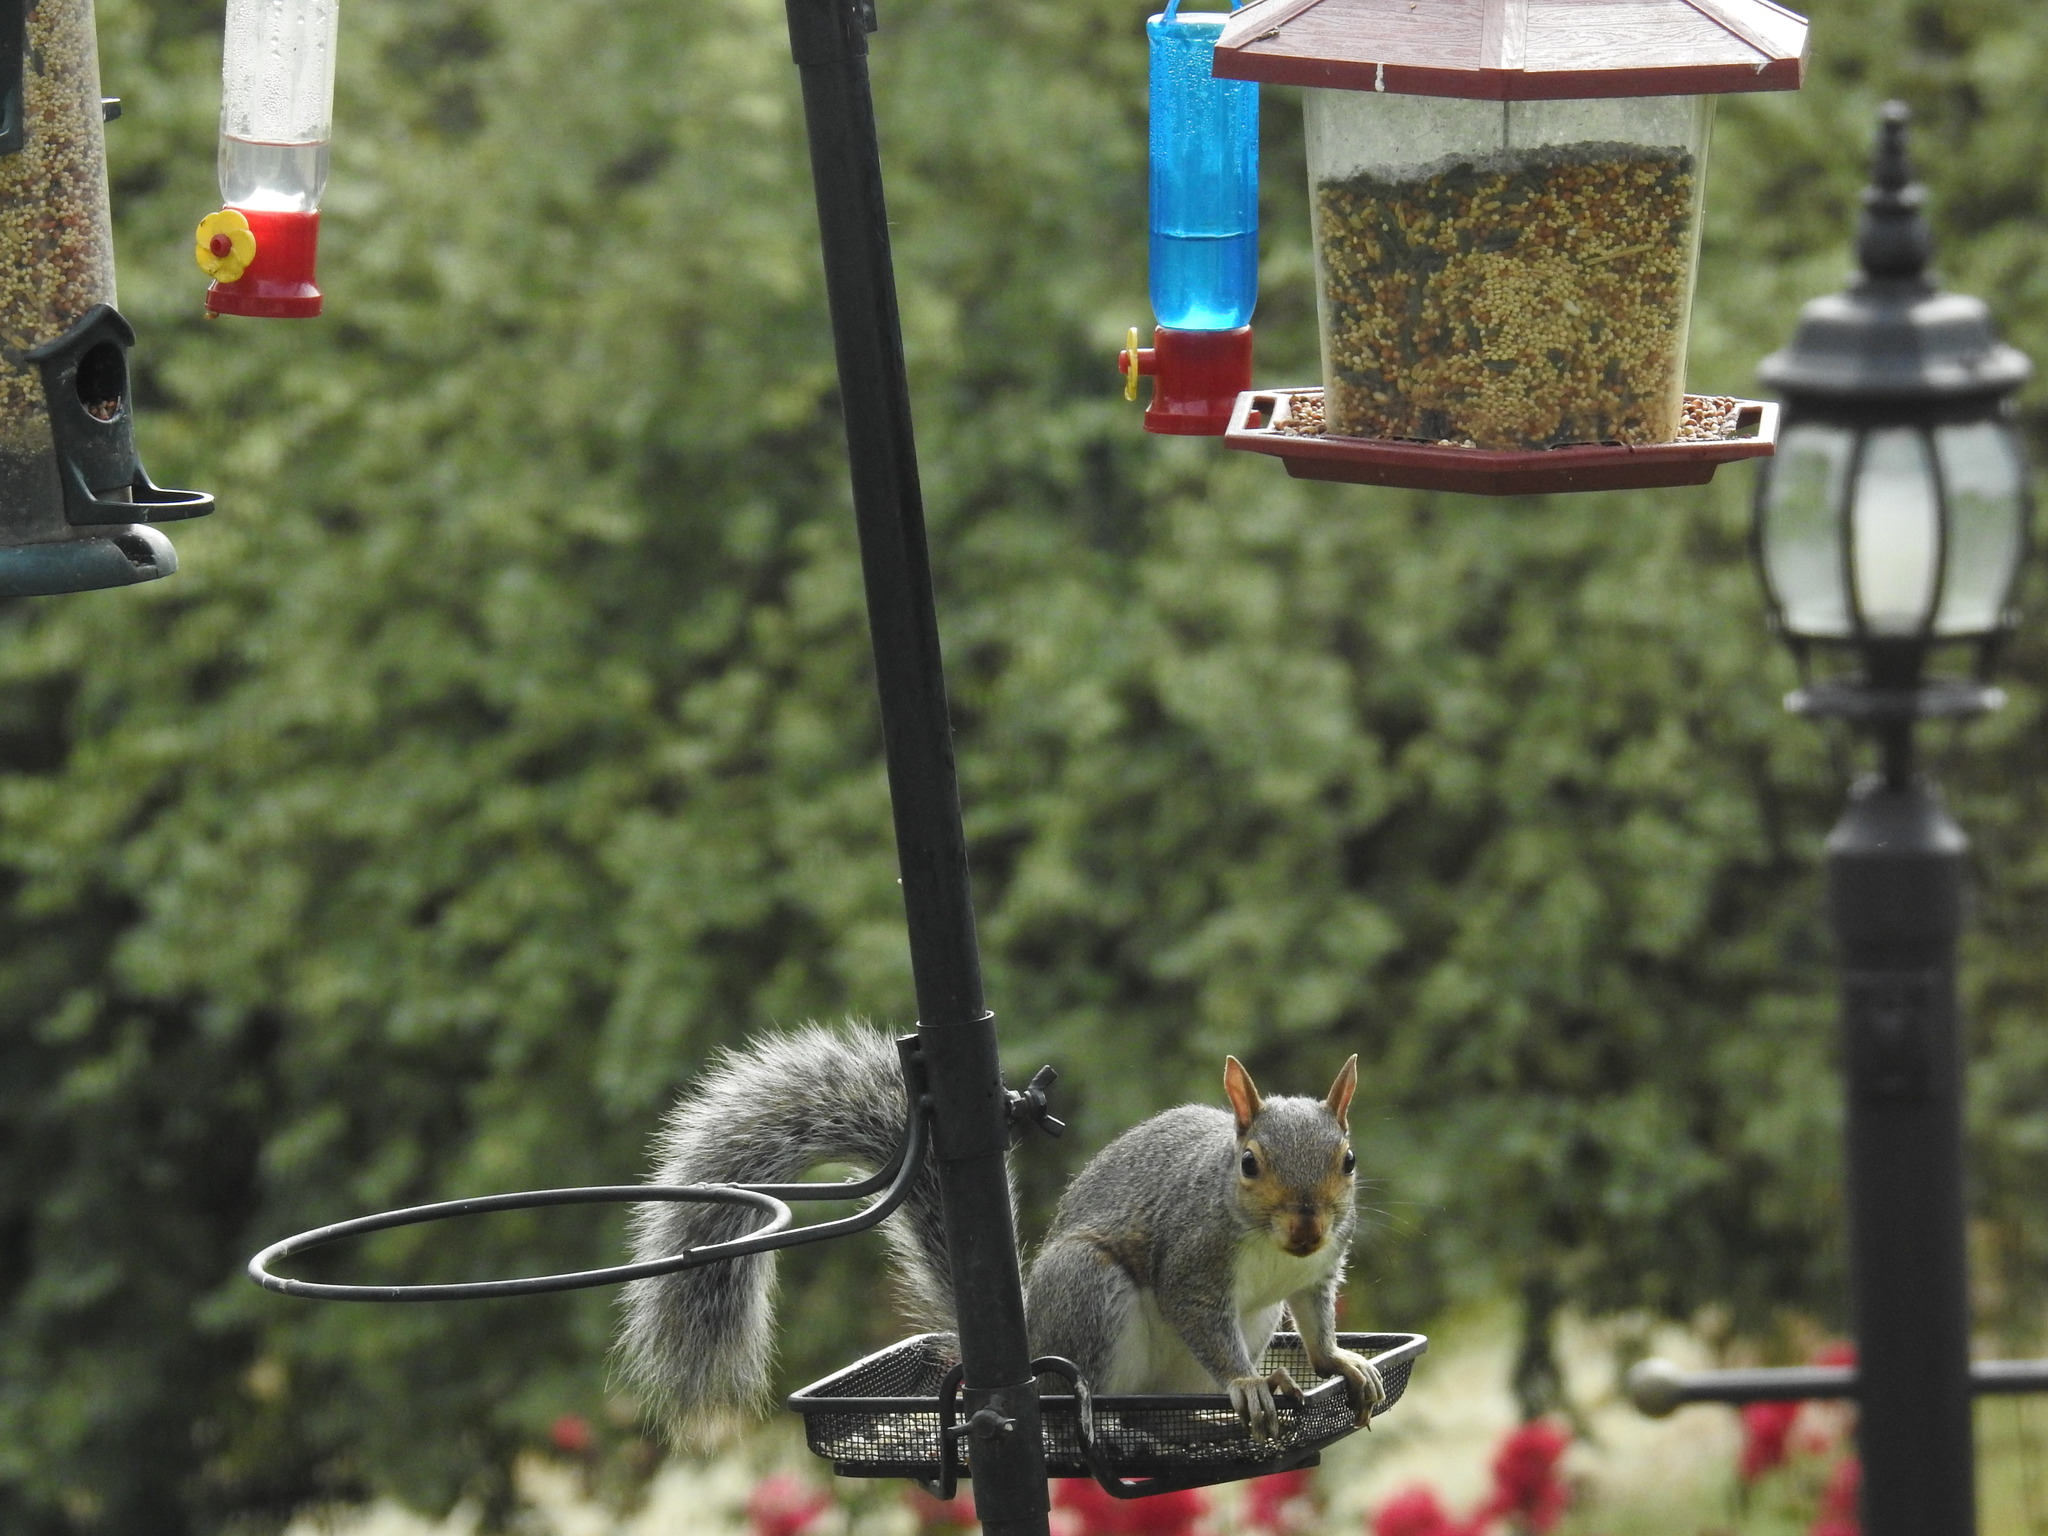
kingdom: Animalia
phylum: Chordata
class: Mammalia
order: Rodentia
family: Sciuridae
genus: Sciurus
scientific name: Sciurus carolinensis
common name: Eastern gray squirrel
